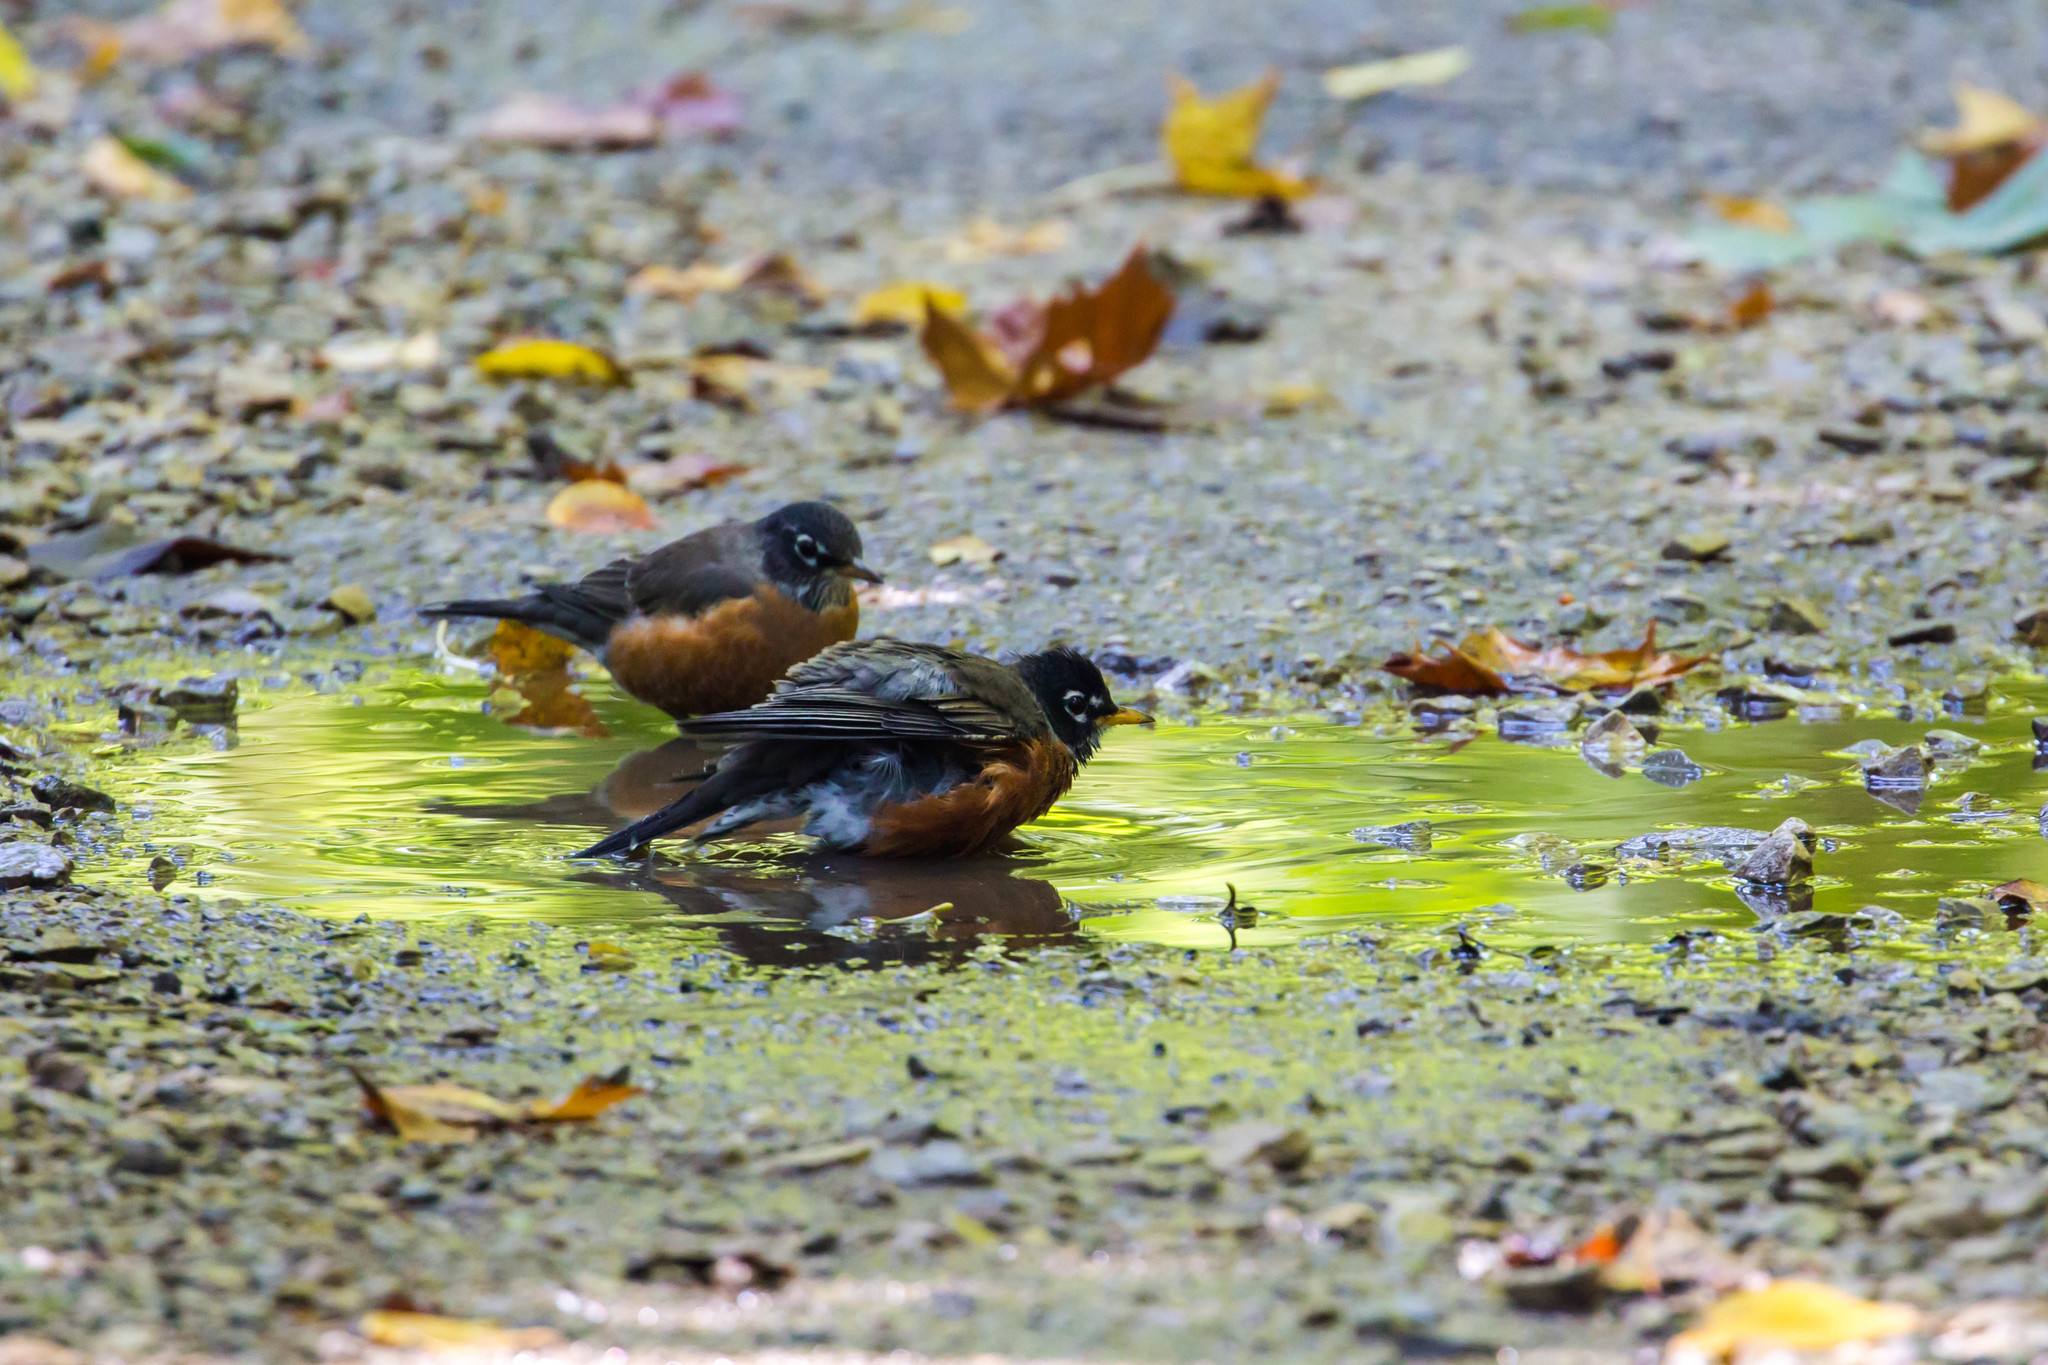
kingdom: Animalia
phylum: Chordata
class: Aves
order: Passeriformes
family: Turdidae
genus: Turdus
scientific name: Turdus migratorius
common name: American robin
